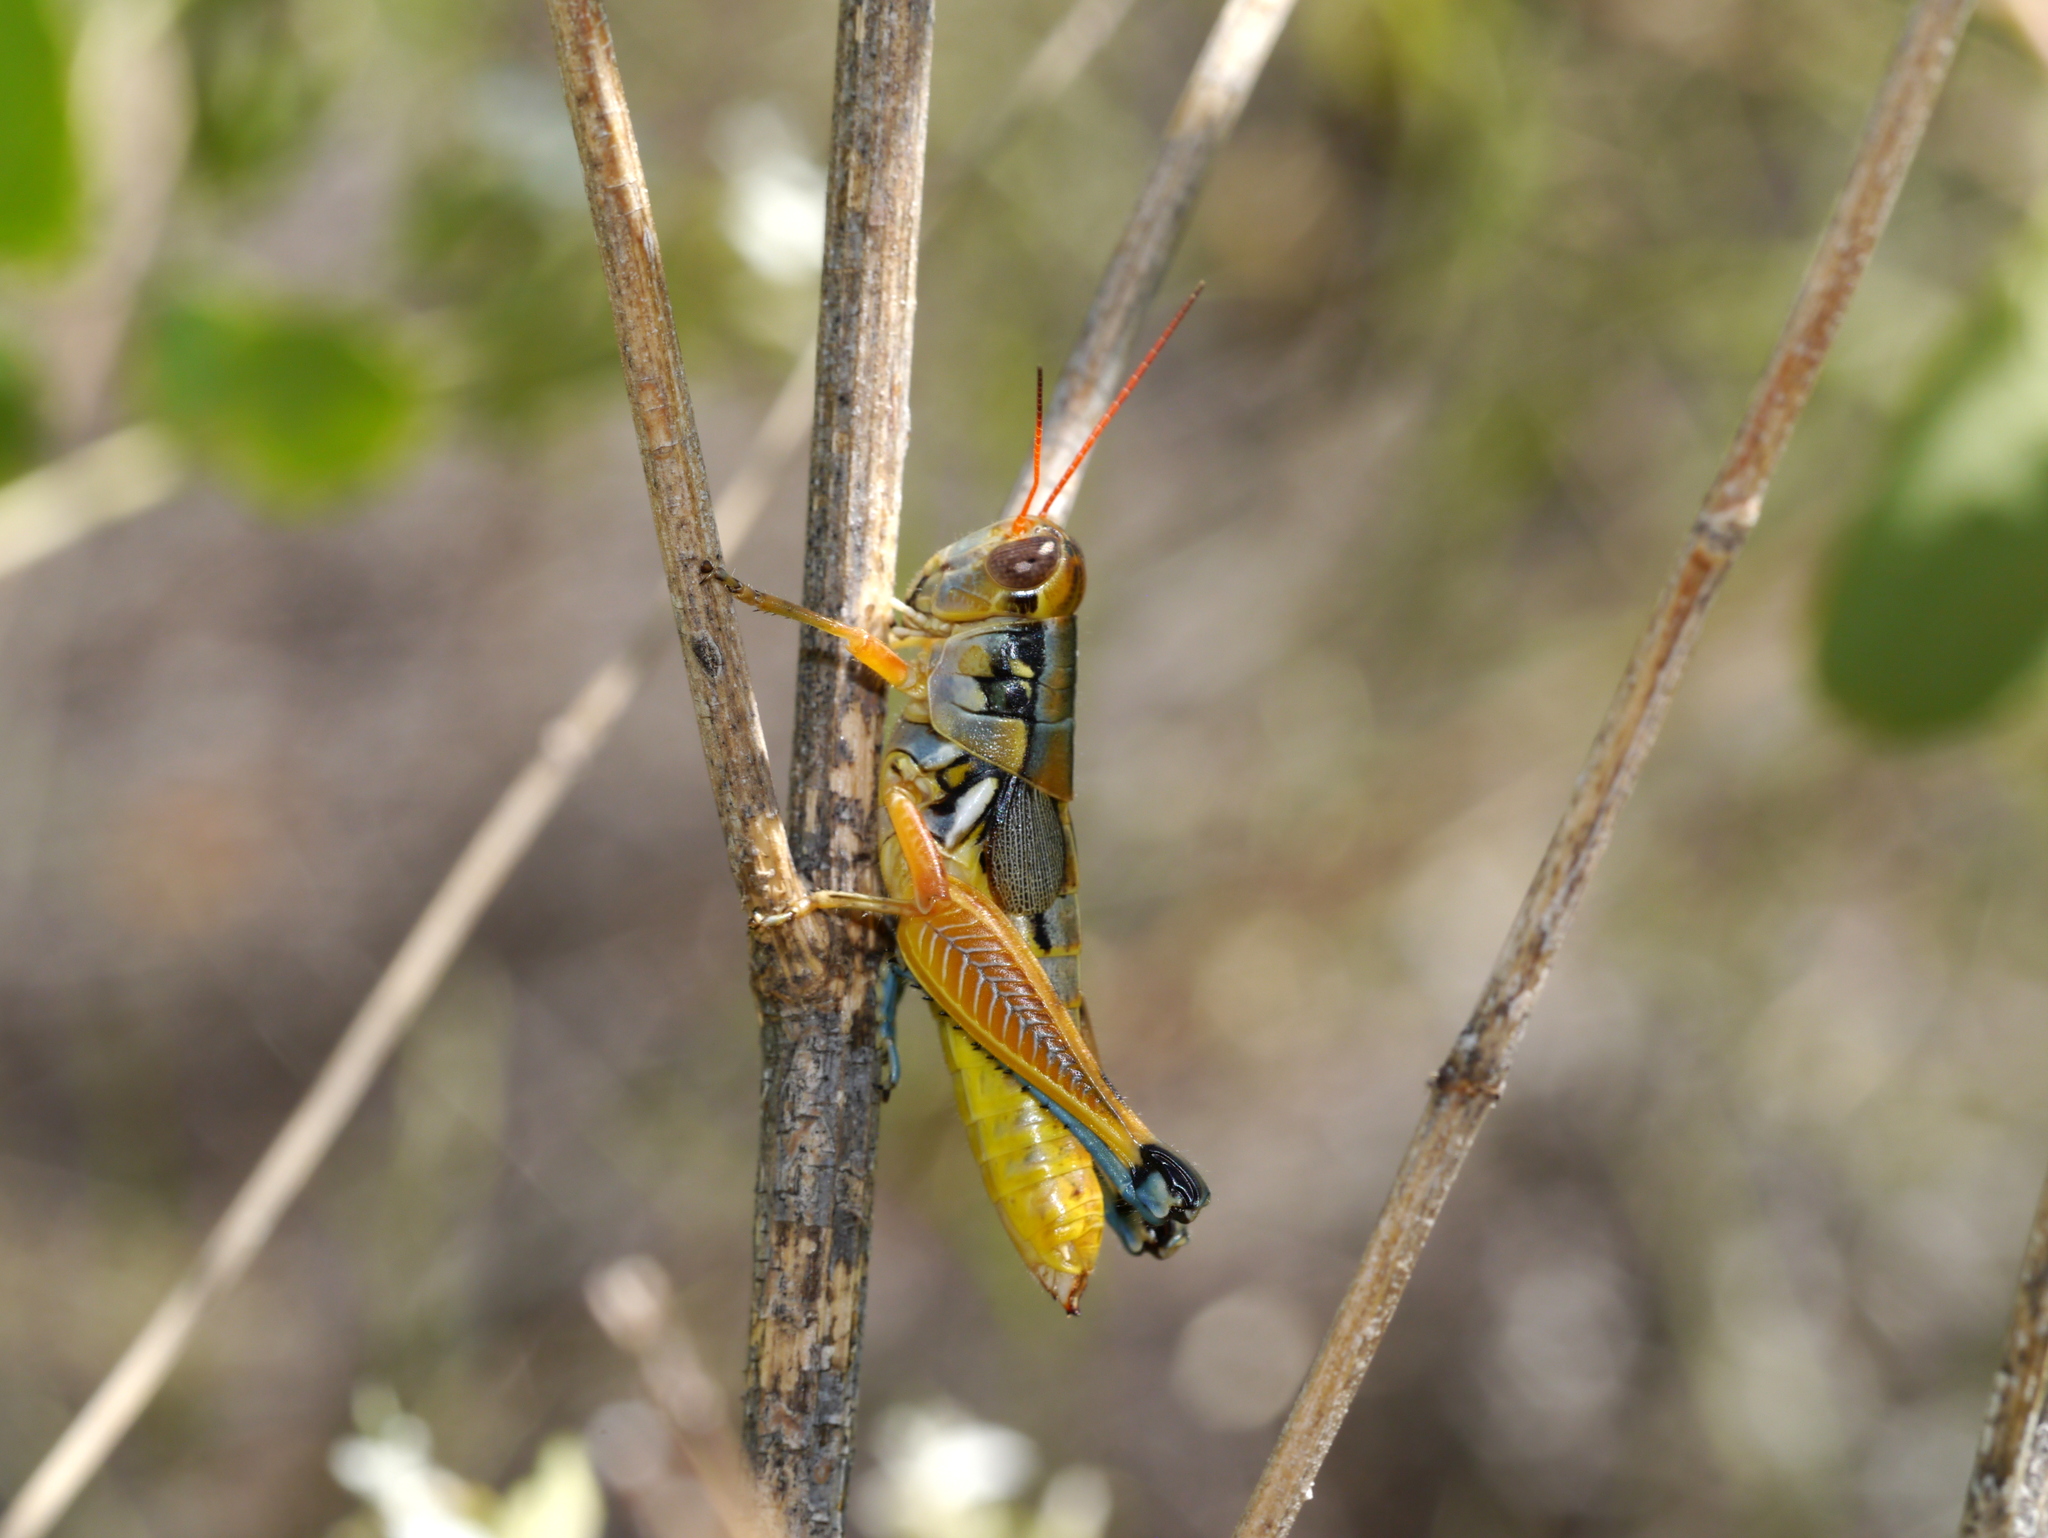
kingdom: Animalia
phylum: Arthropoda
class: Insecta
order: Orthoptera
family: Acrididae
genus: Melanoplus
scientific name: Melanoplus aridus
